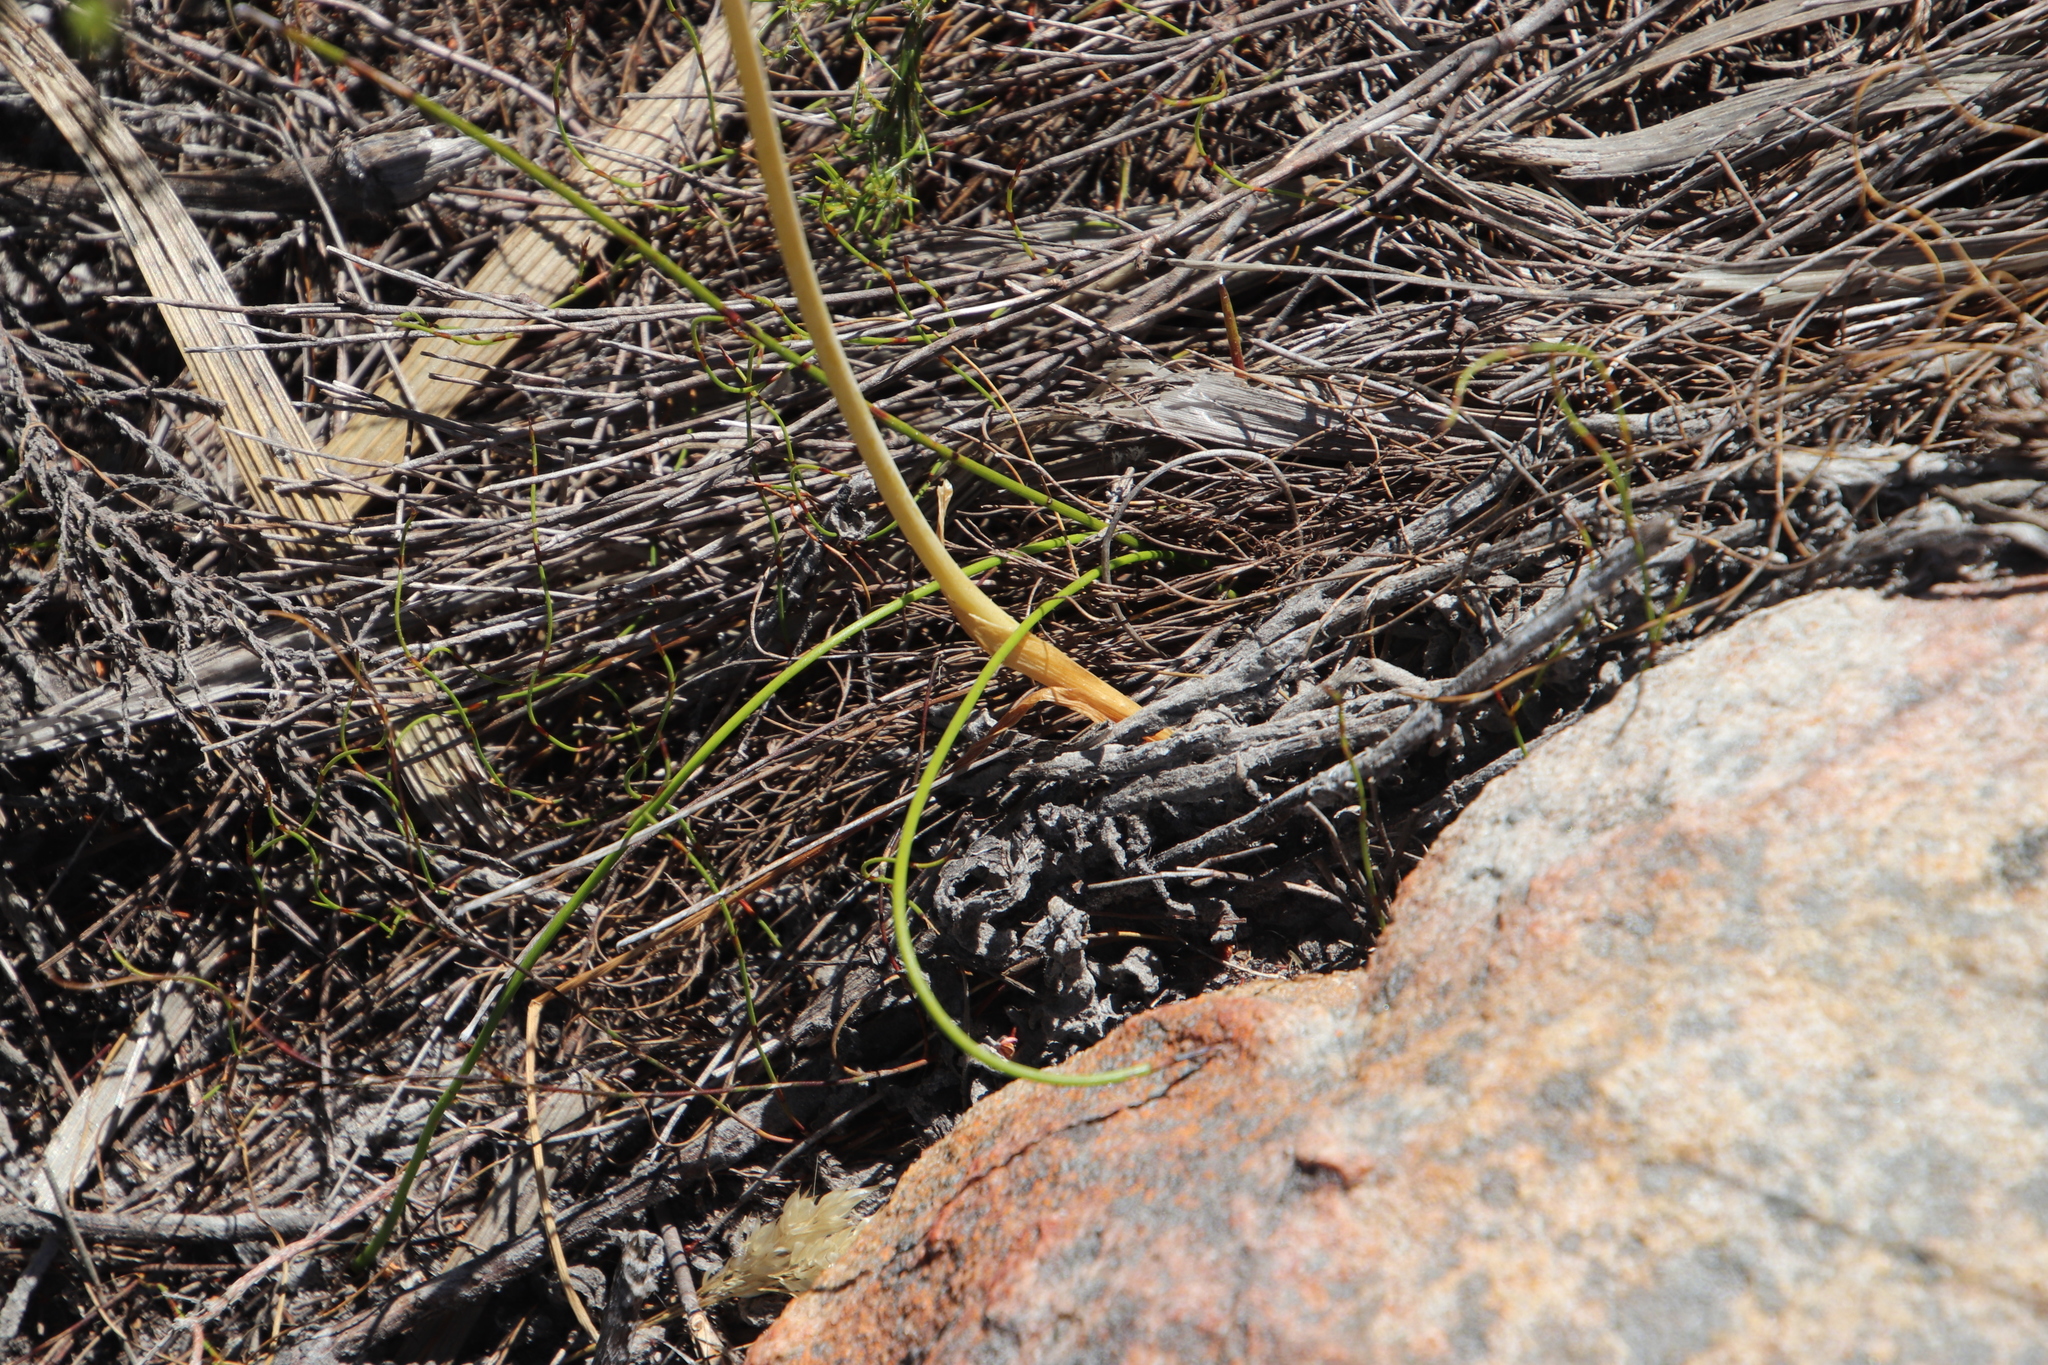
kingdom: Plantae
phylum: Tracheophyta
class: Liliopsida
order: Asparagales
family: Asparagaceae
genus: Albuca
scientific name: Albuca fragrans
